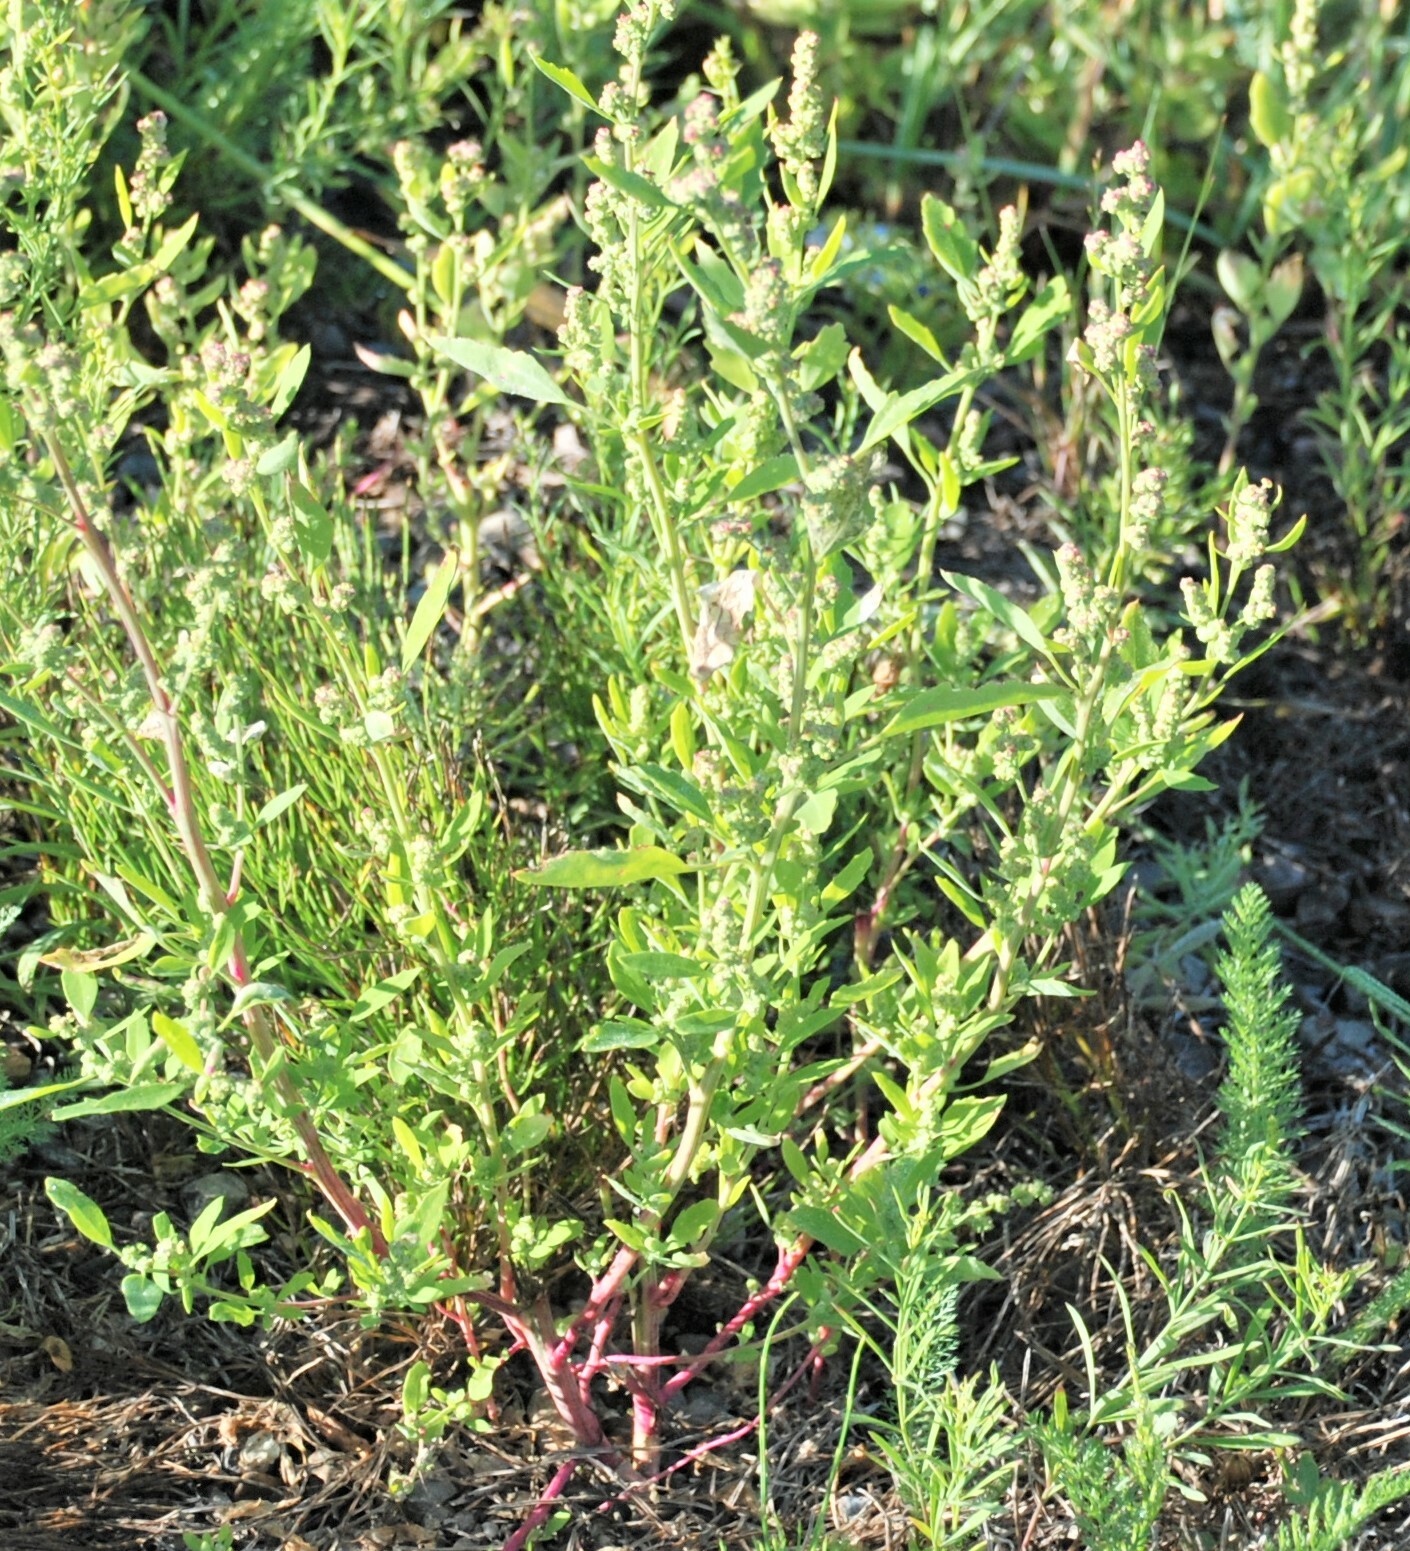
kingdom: Plantae
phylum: Tracheophyta
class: Magnoliopsida
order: Caryophyllales
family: Amaranthaceae
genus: Chenopodium
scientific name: Chenopodium album
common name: Fat-hen
